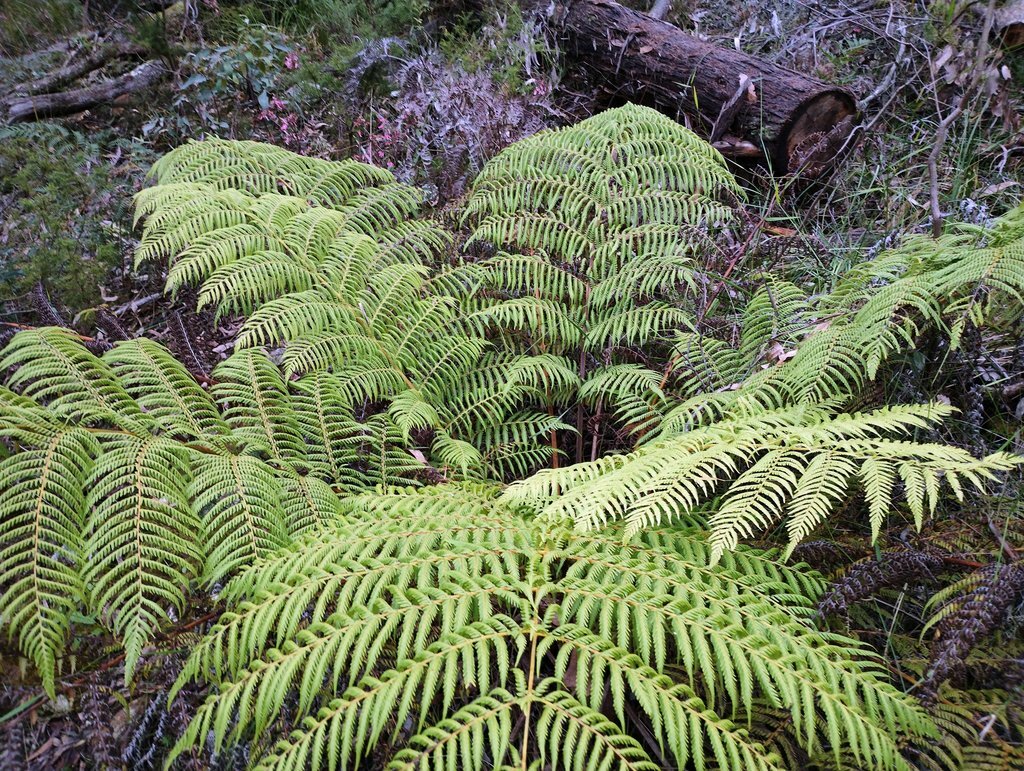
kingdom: Plantae
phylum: Tracheophyta
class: Polypodiopsida
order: Cyatheales
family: Cyatheaceae
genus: Alsophila
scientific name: Alsophila australis
